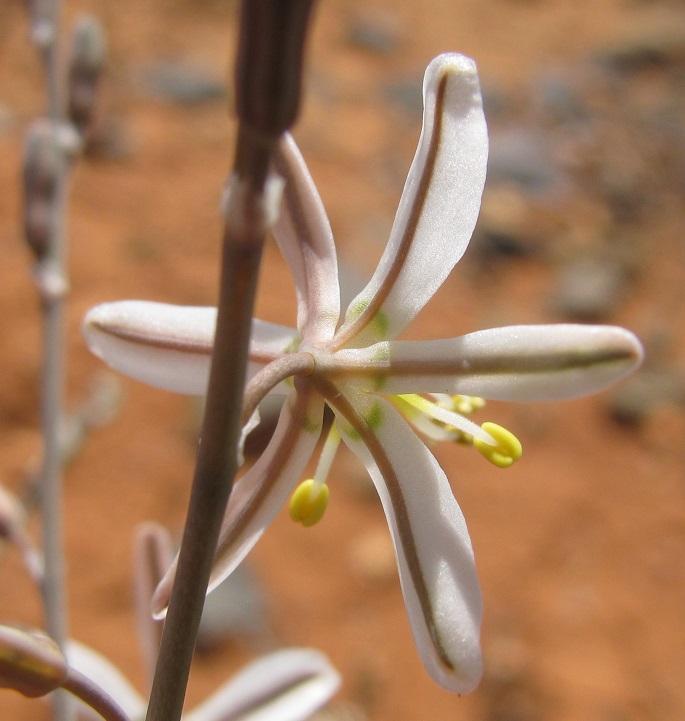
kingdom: Plantae
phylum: Tracheophyta
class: Liliopsida
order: Asparagales
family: Asphodelaceae
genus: Trachyandra
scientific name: Trachyandra jacquiniana
